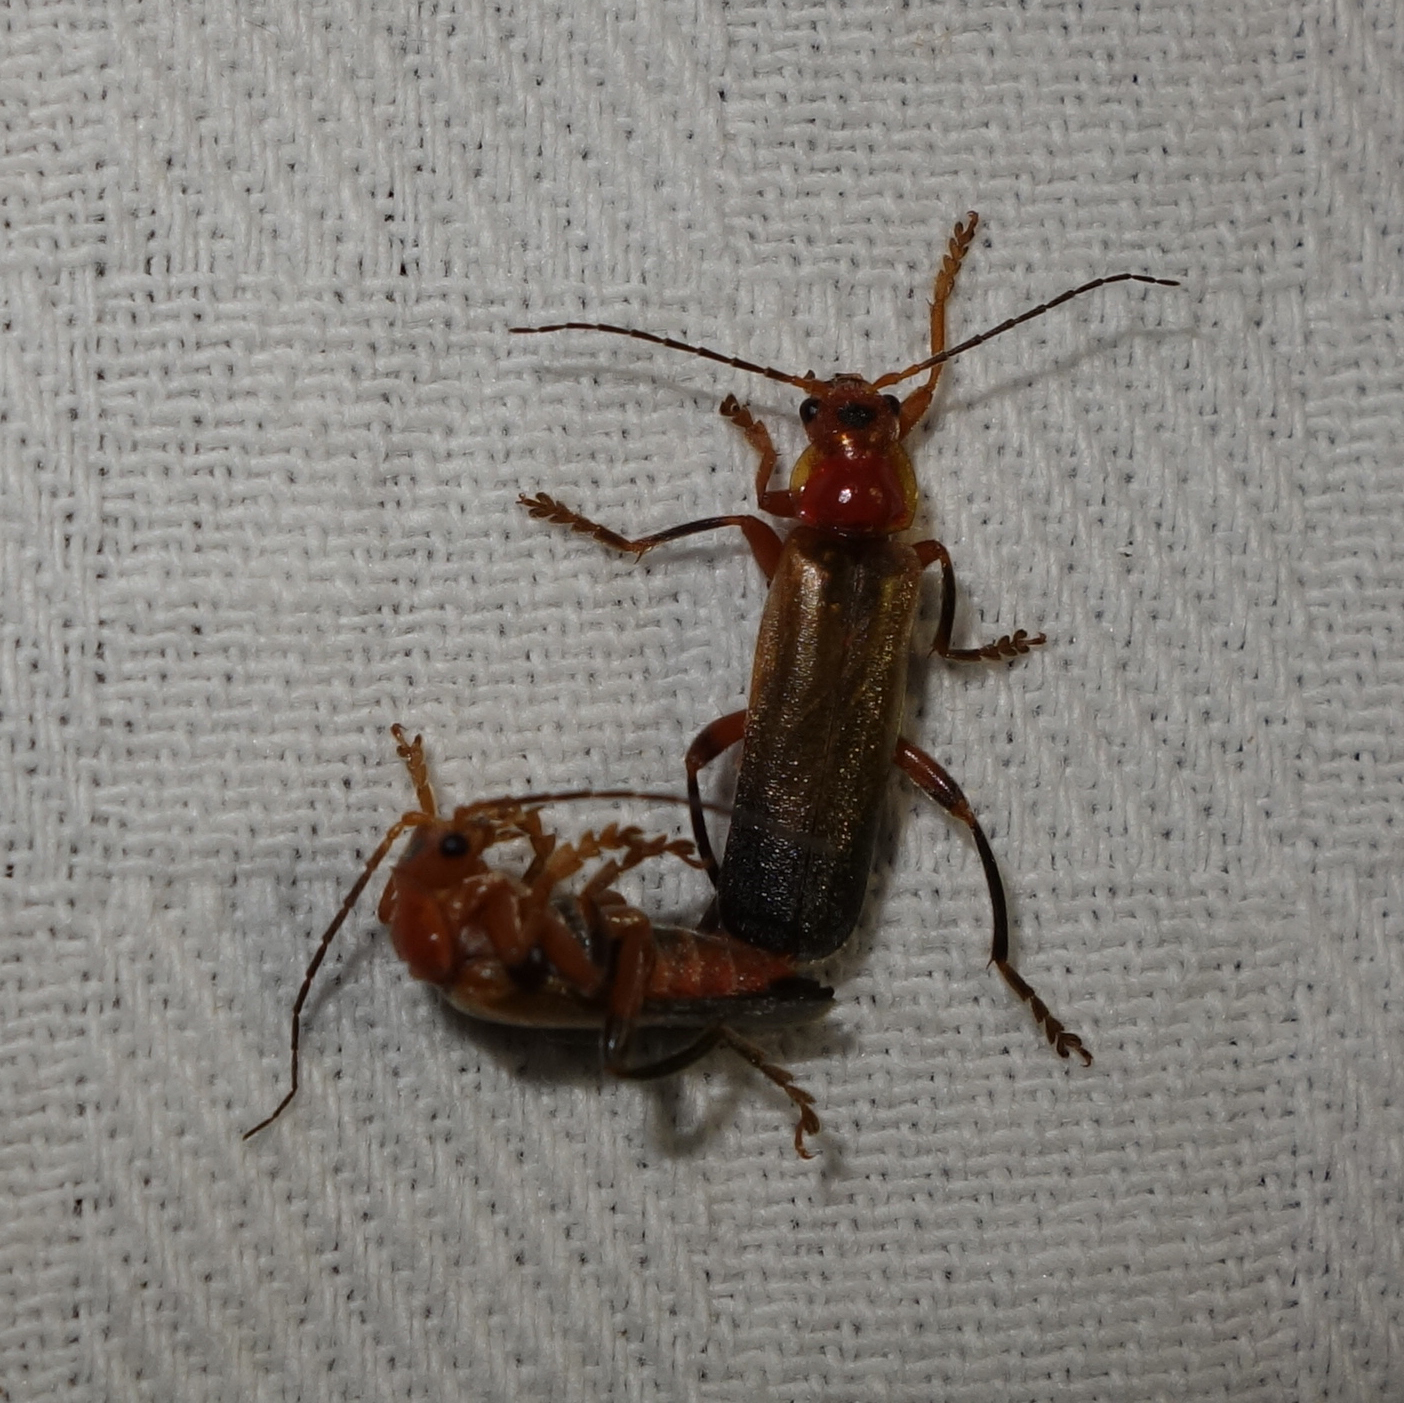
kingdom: Animalia
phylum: Arthropoda
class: Insecta
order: Coleoptera
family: Cantharidae
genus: Cantharis
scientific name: Cantharis livida
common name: Livid soldier beetle
